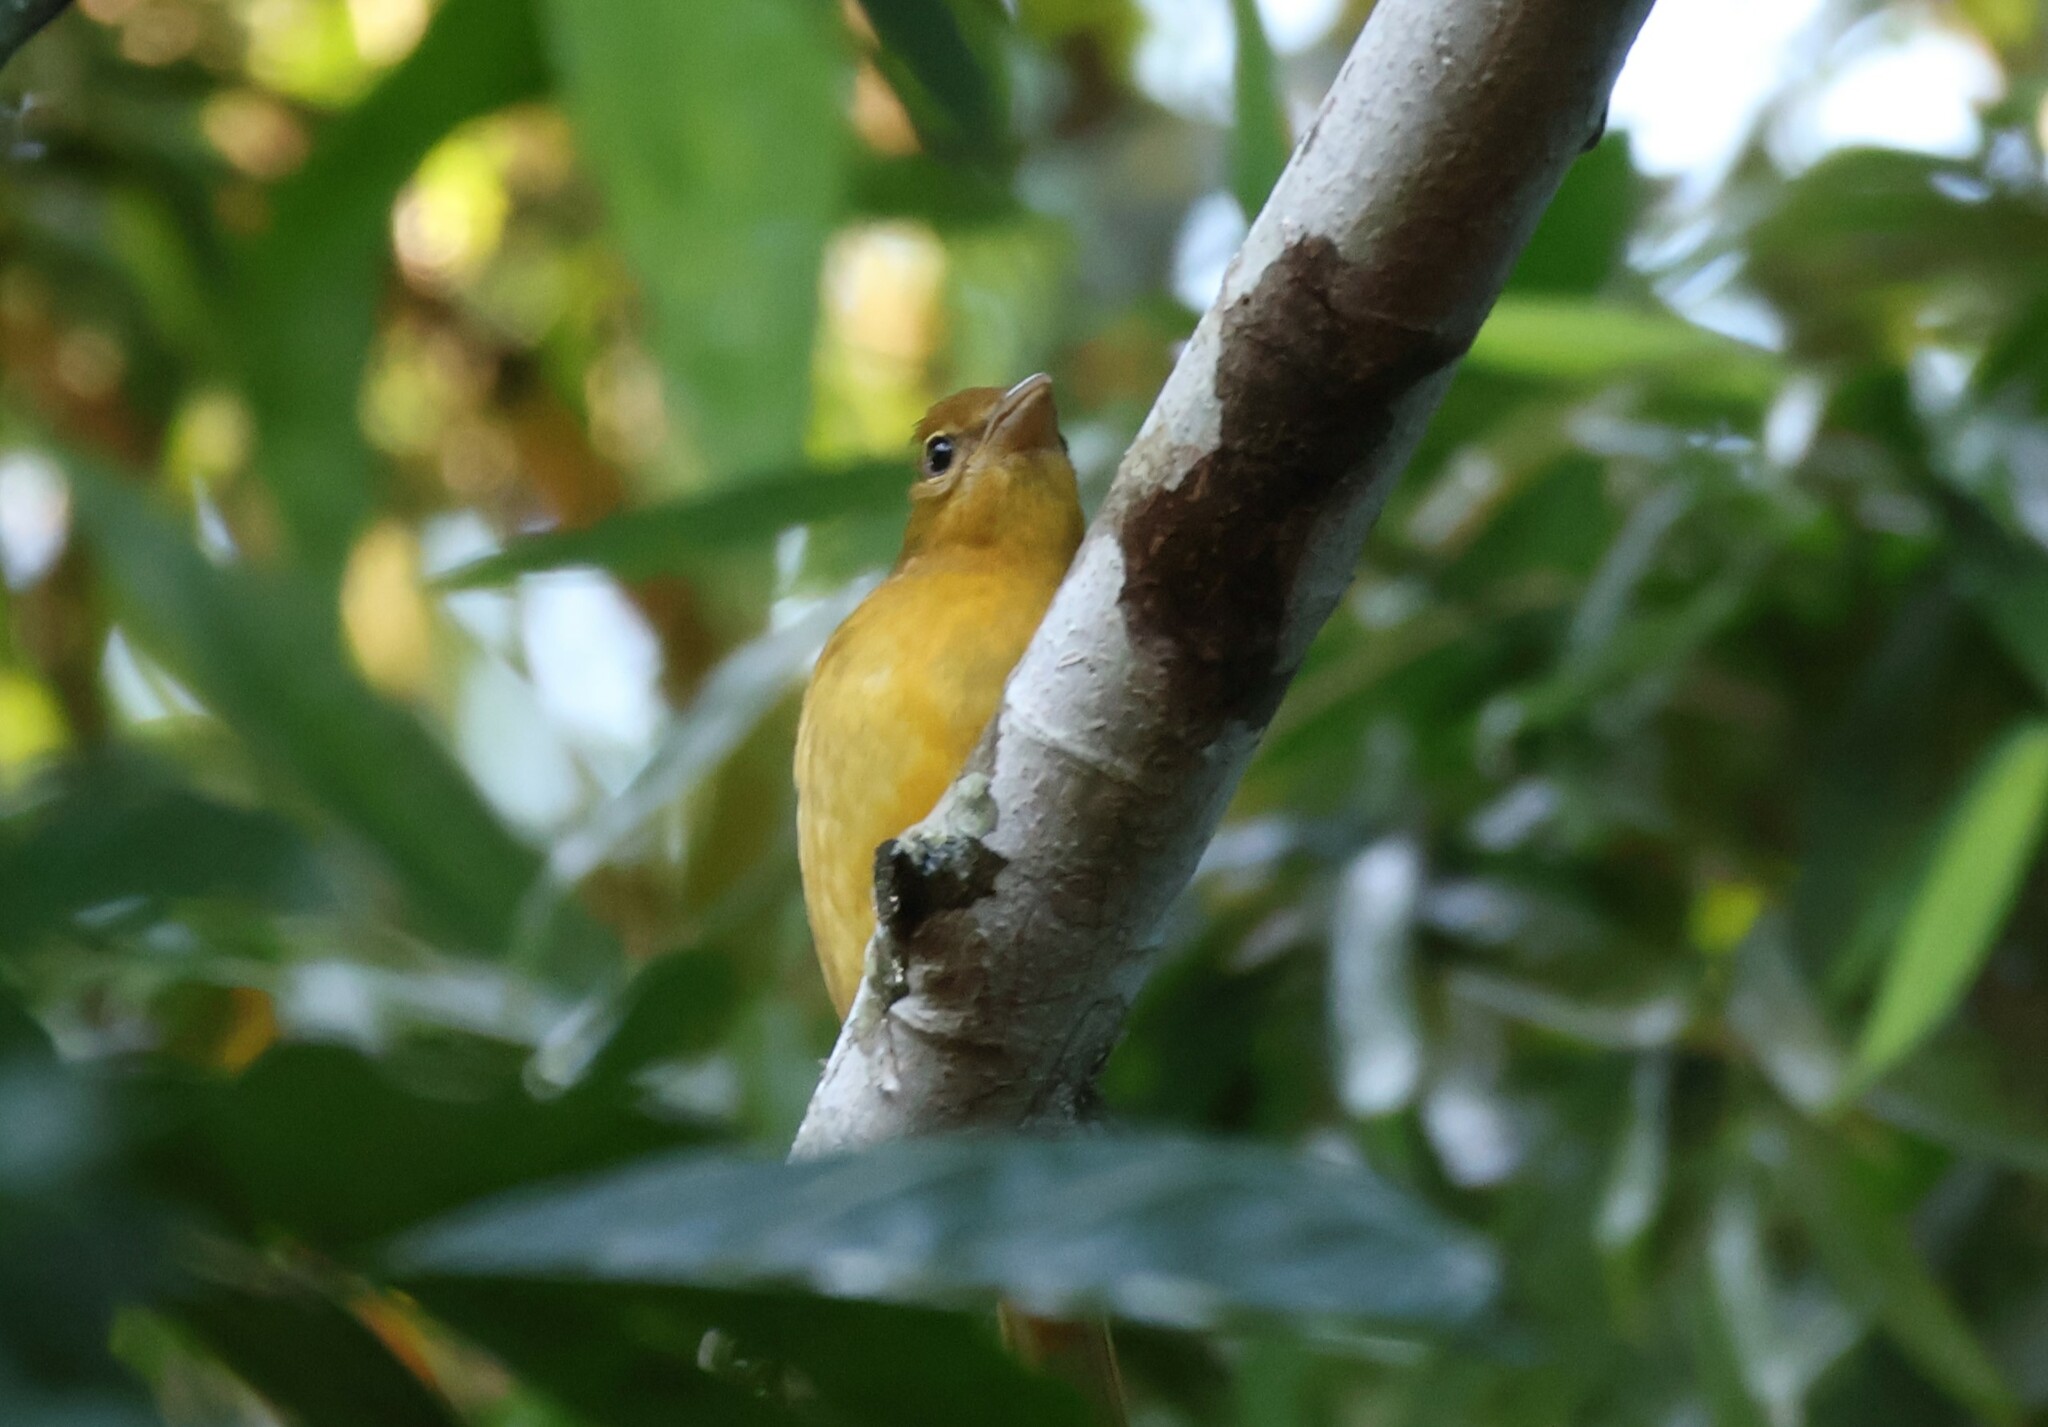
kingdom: Animalia
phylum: Chordata
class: Aves
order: Passeriformes
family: Cardinalidae
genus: Piranga
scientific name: Piranga rubra
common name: Summer tanager
